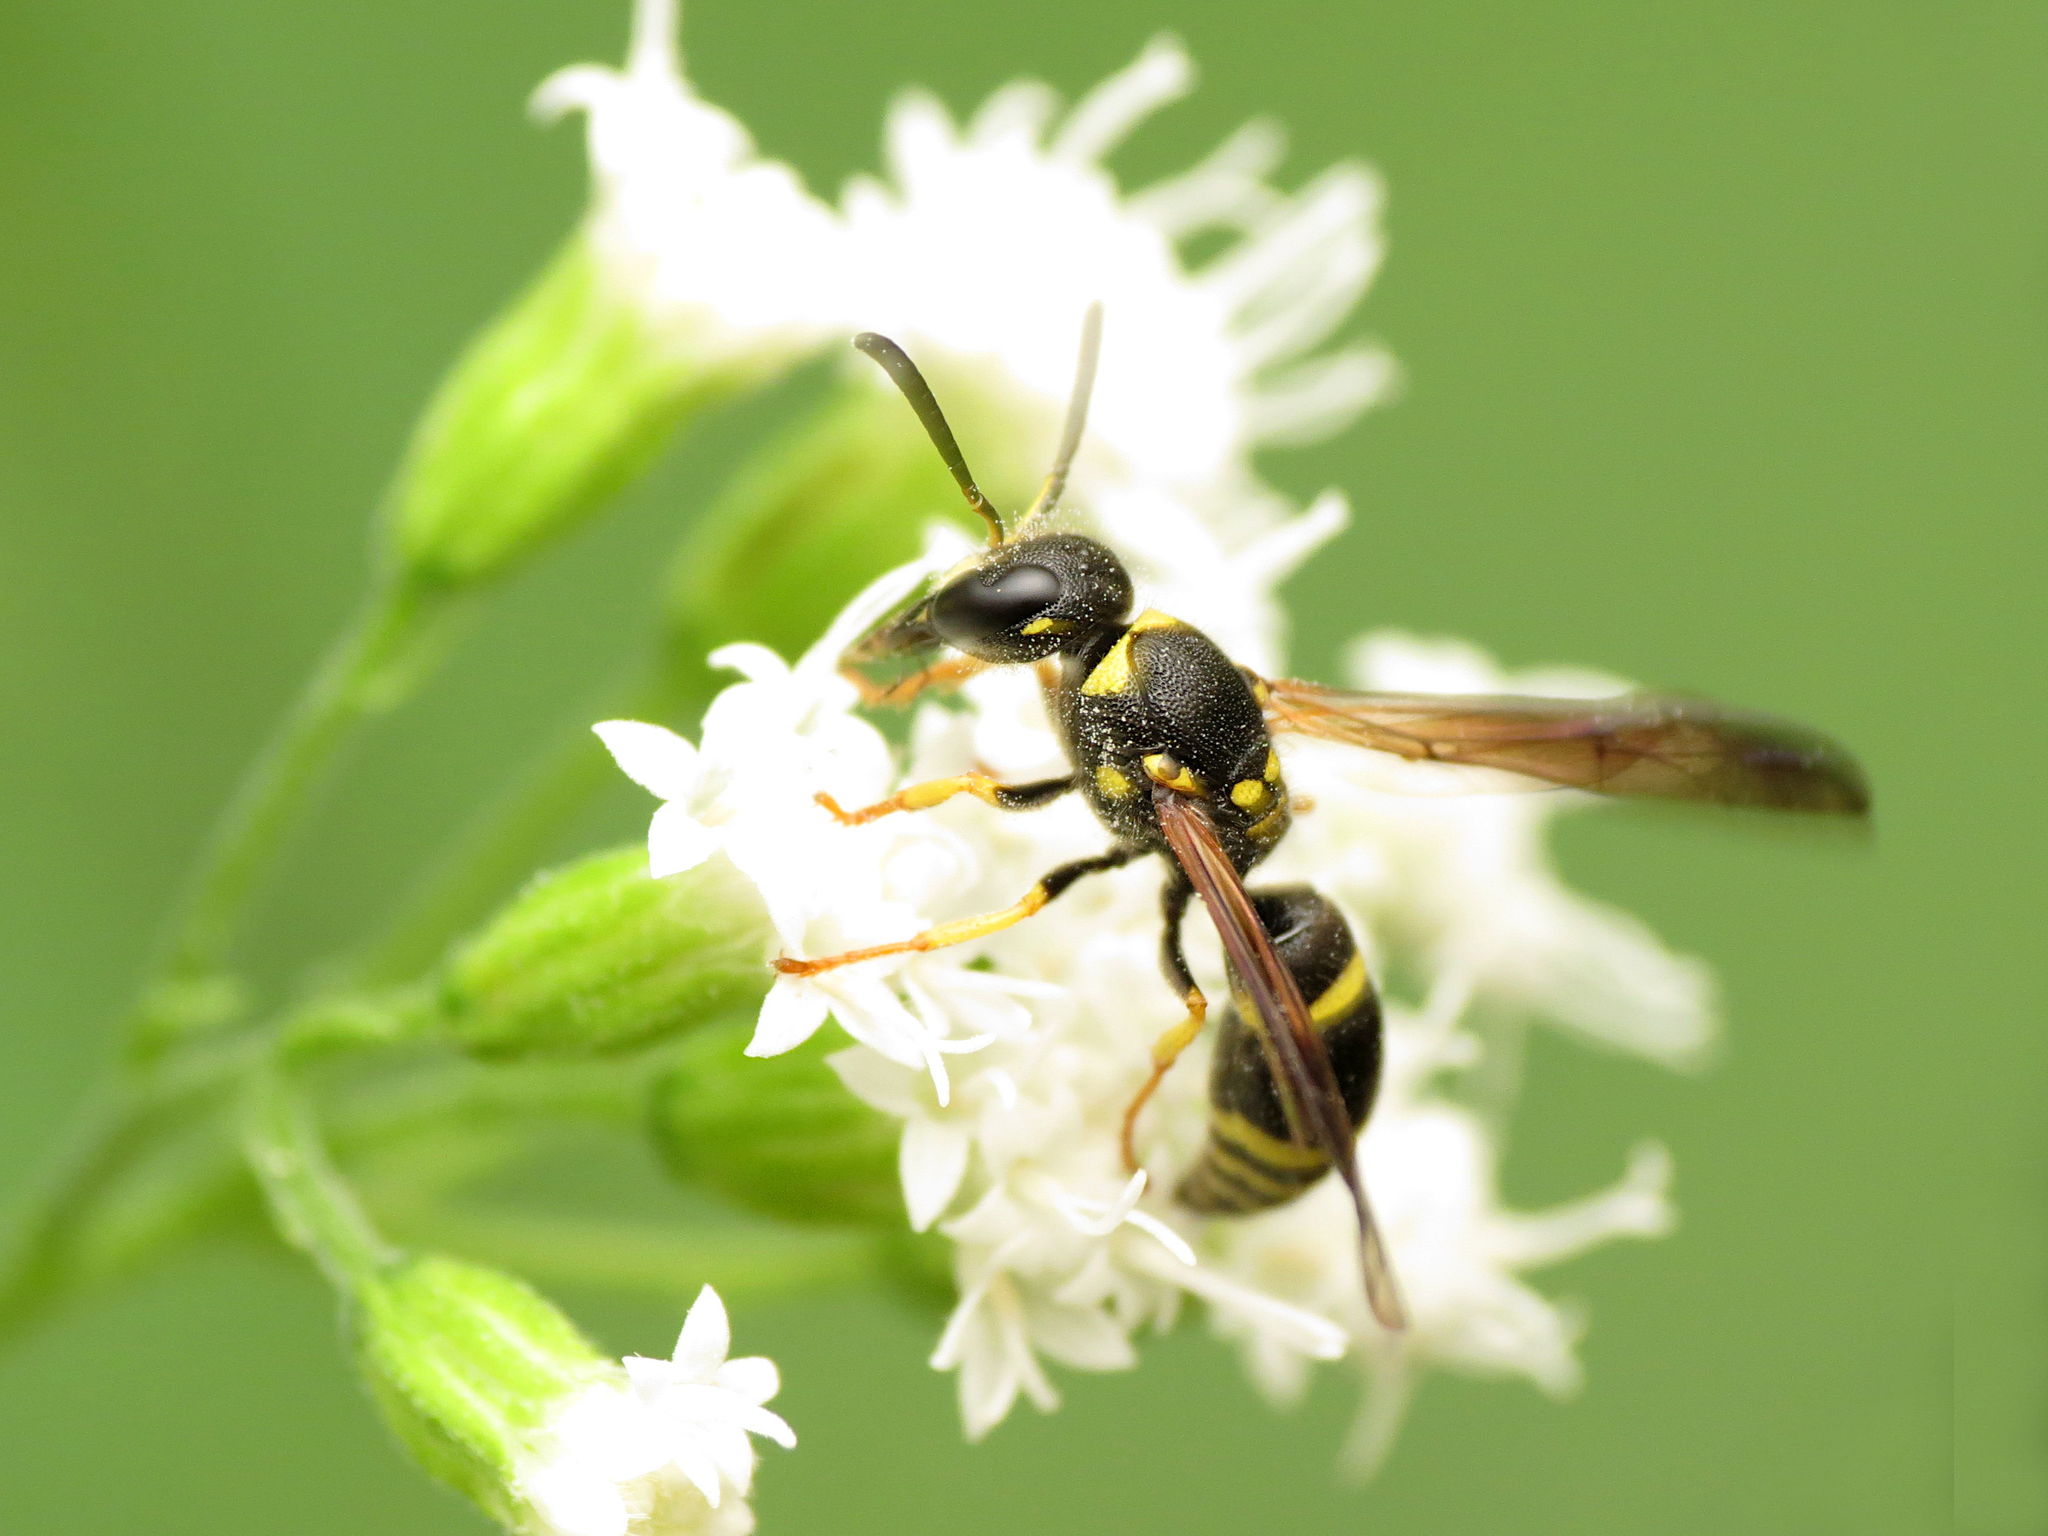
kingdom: Animalia
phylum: Arthropoda
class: Insecta
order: Hymenoptera
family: Vespidae
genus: Ancistrocerus
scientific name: Ancistrocerus adiabatus
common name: Bramble mason wasp
